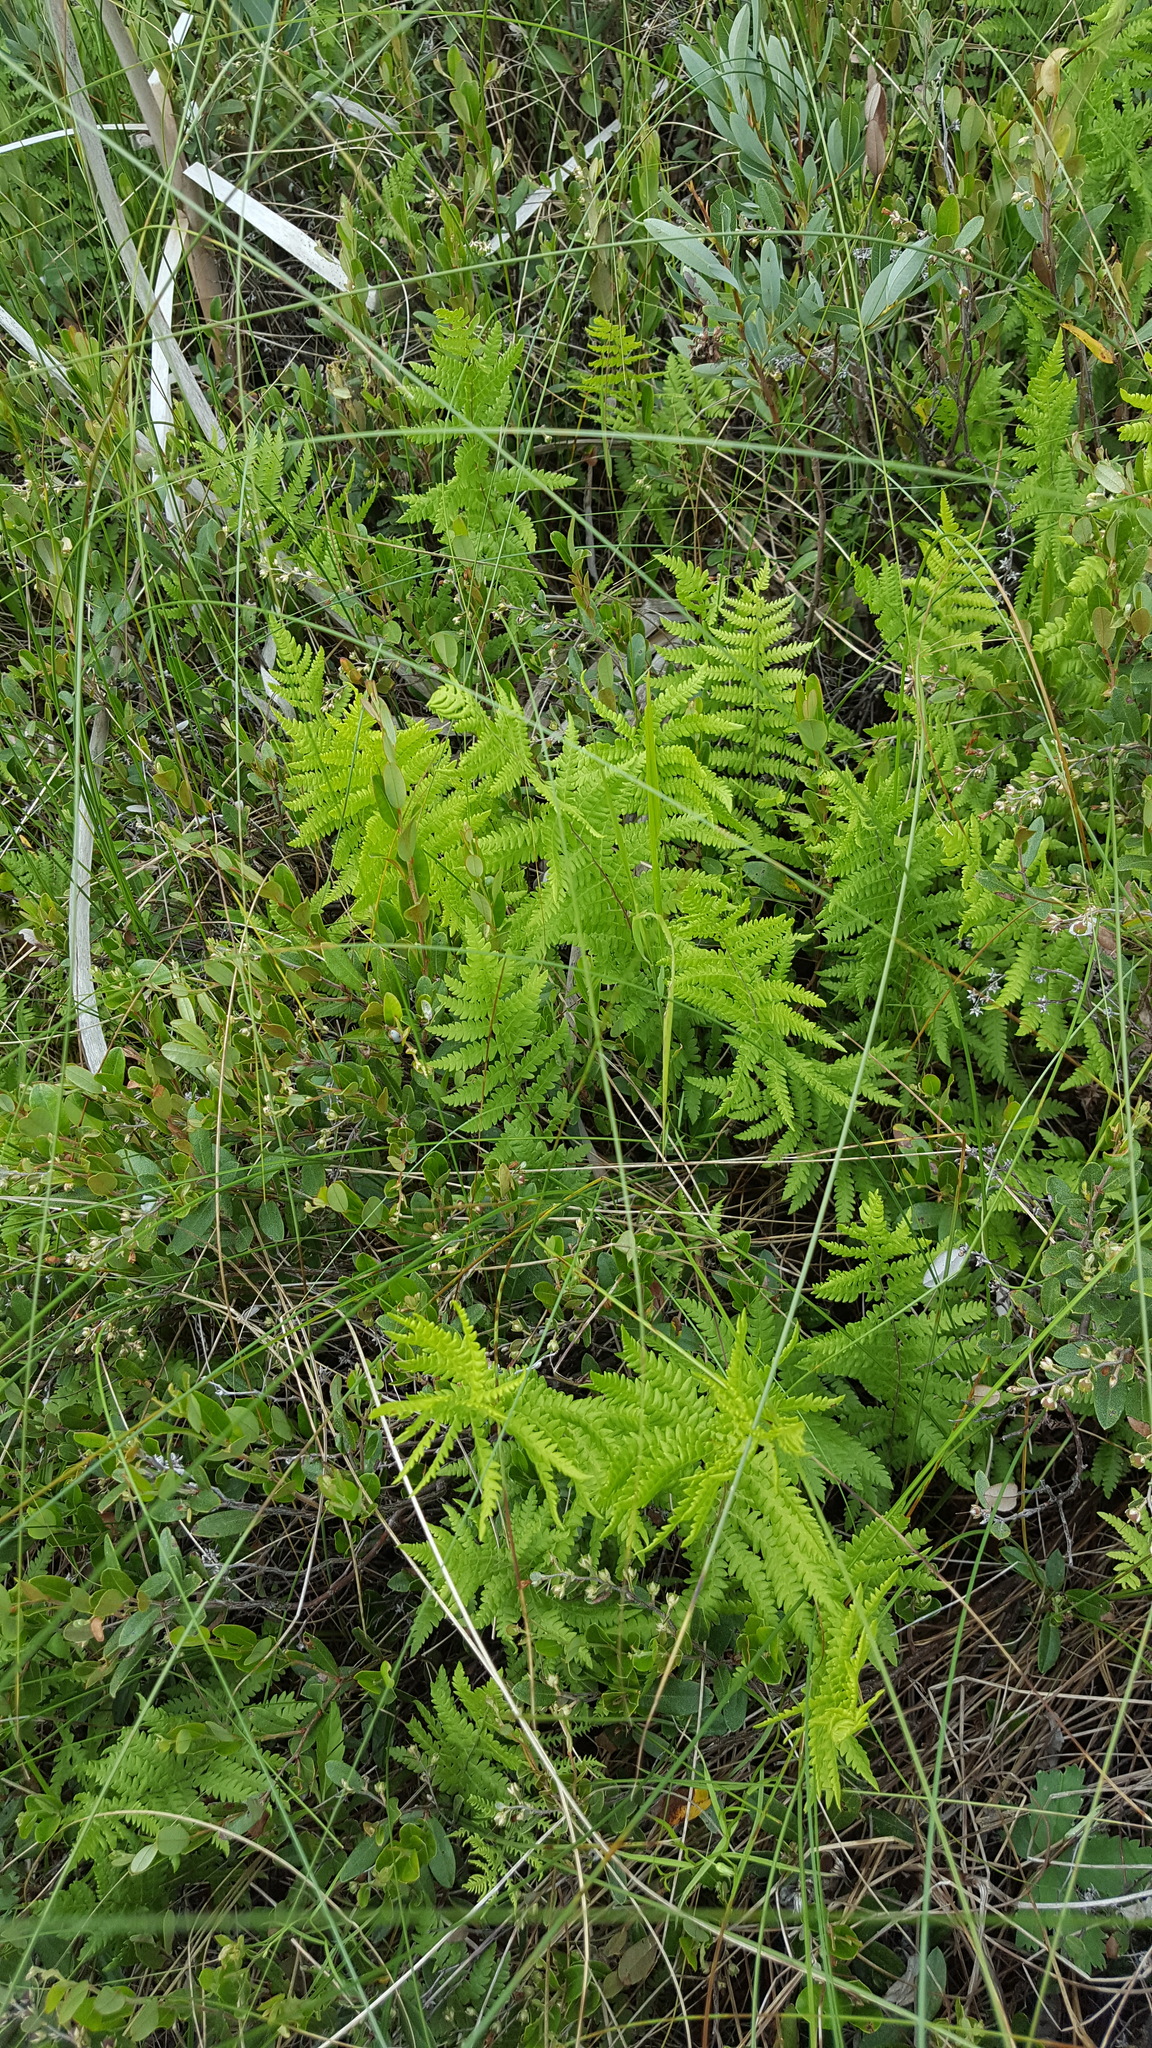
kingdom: Plantae
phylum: Tracheophyta
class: Polypodiopsida
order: Polypodiales
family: Thelypteridaceae
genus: Thelypteris
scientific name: Thelypteris palustris
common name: Marsh fern
